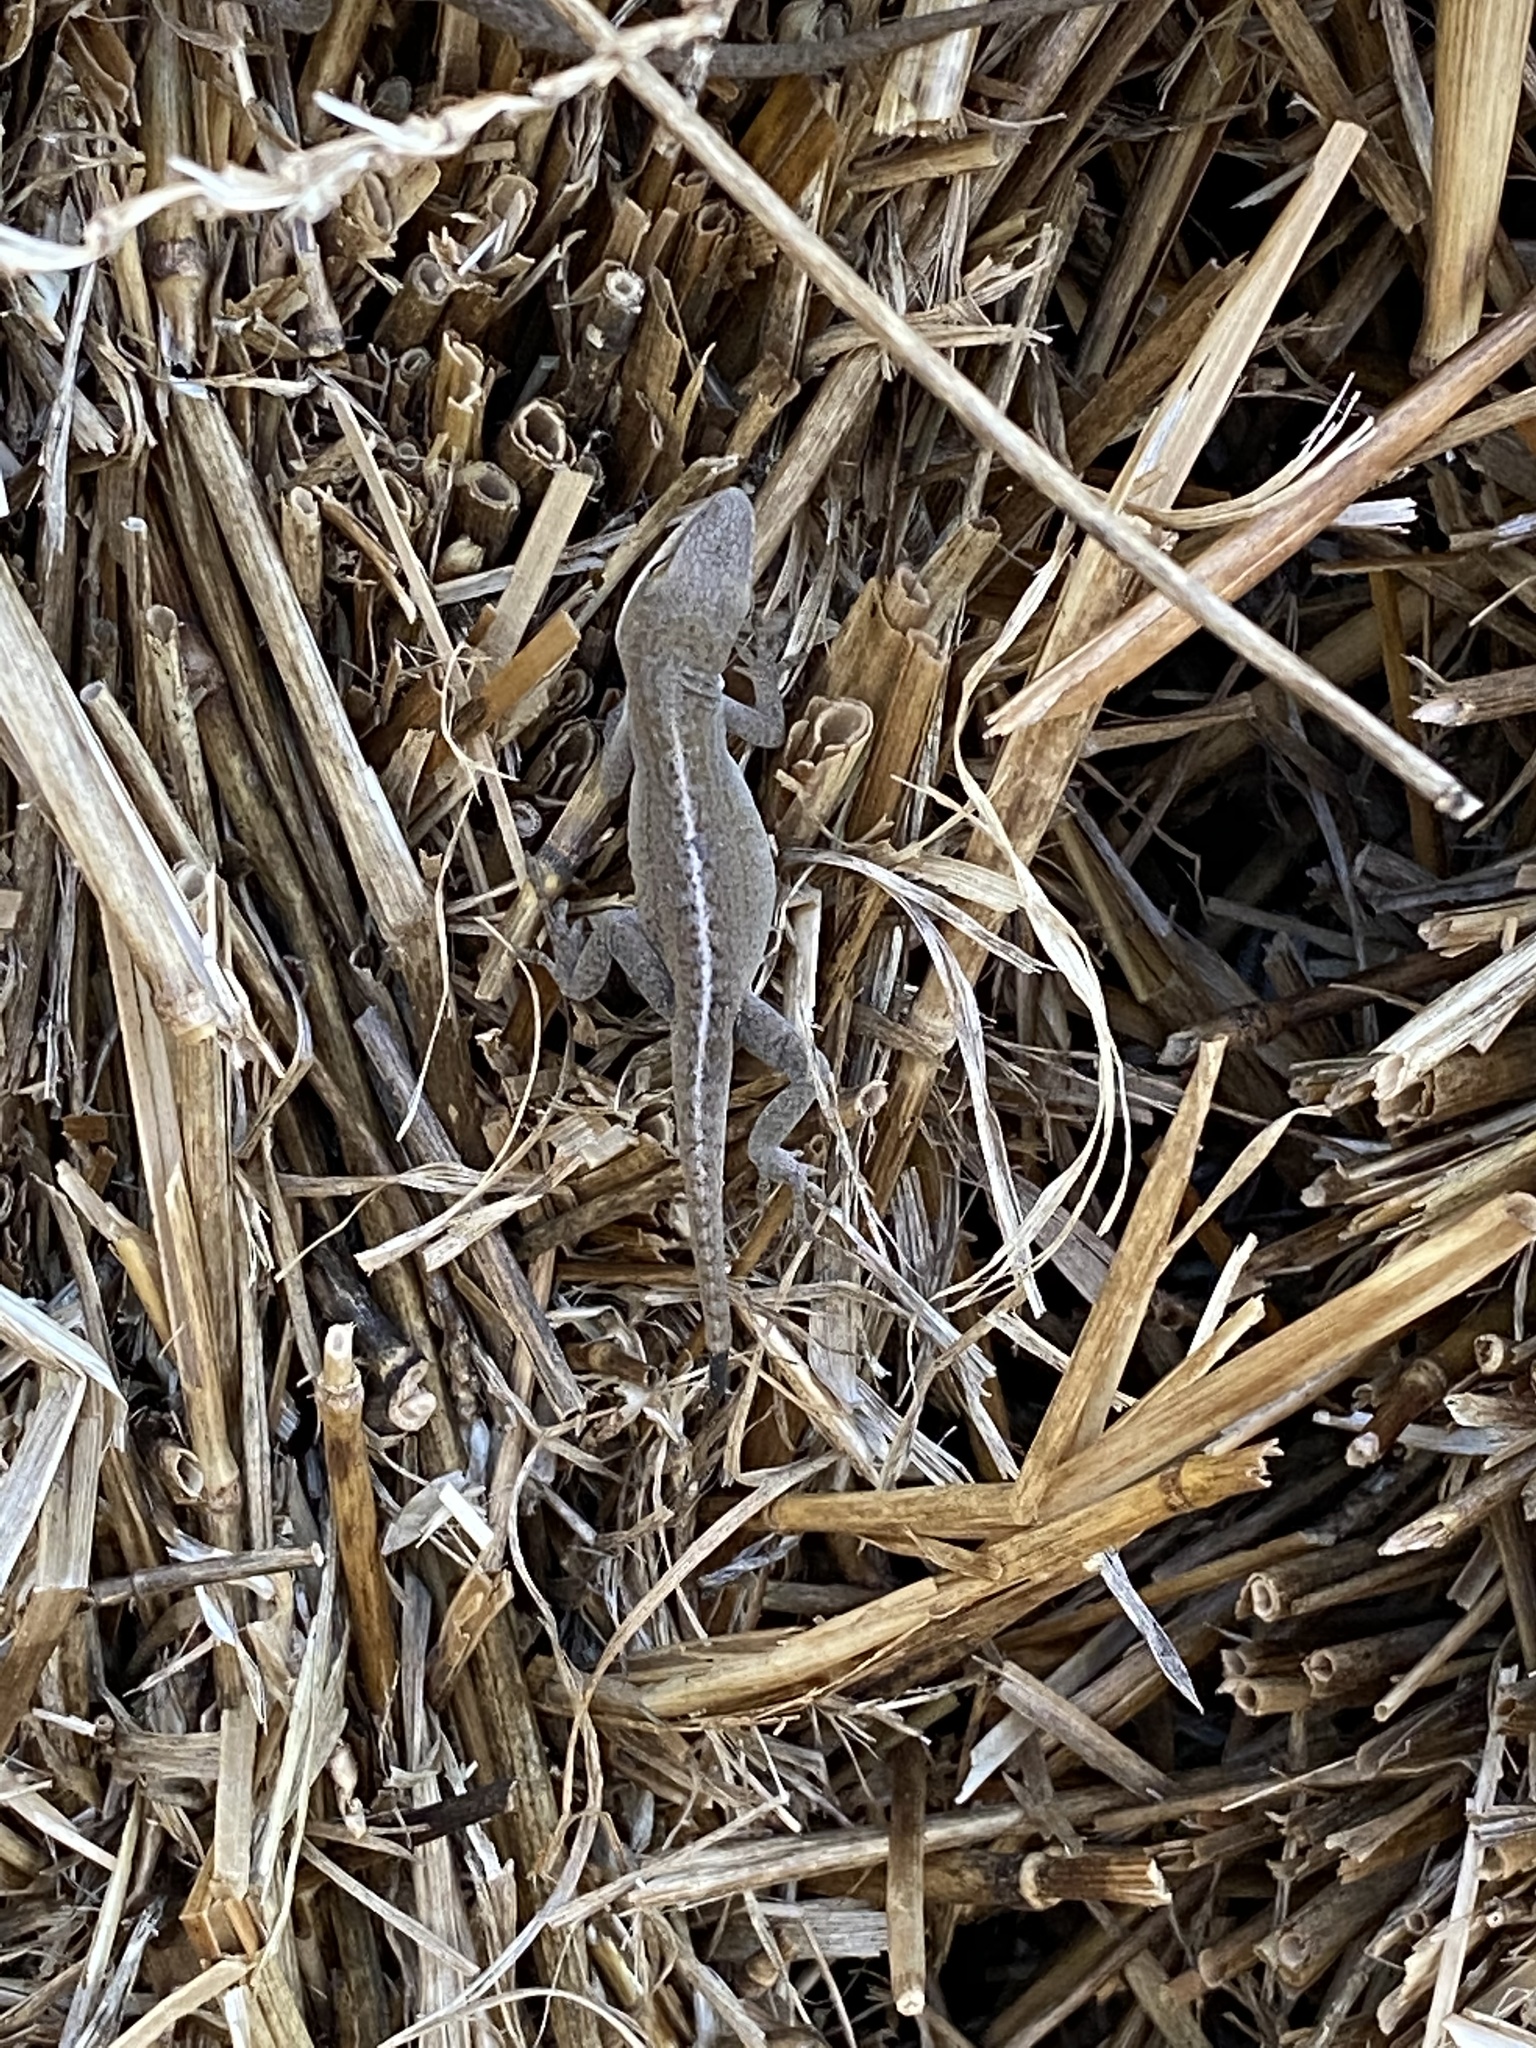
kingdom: Animalia
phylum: Chordata
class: Squamata
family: Dactyloidae
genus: Anolis
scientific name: Anolis carolinensis
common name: Green anole
